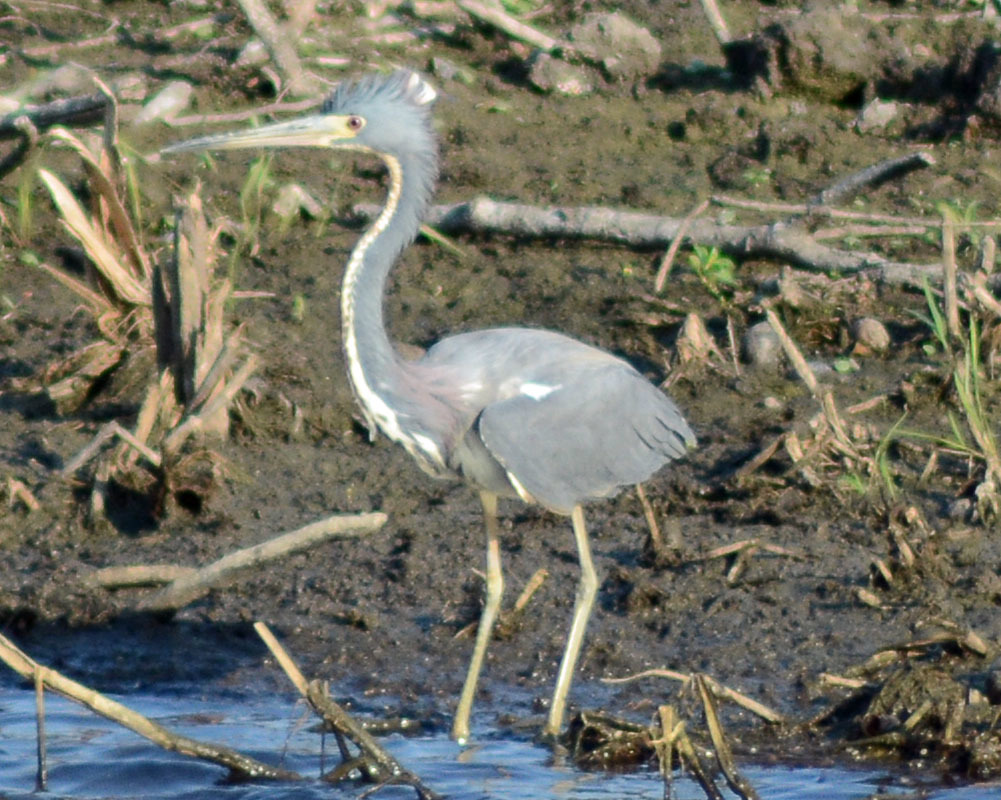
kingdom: Animalia
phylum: Chordata
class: Aves
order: Pelecaniformes
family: Ardeidae
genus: Egretta
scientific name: Egretta tricolor
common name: Tricolored heron
